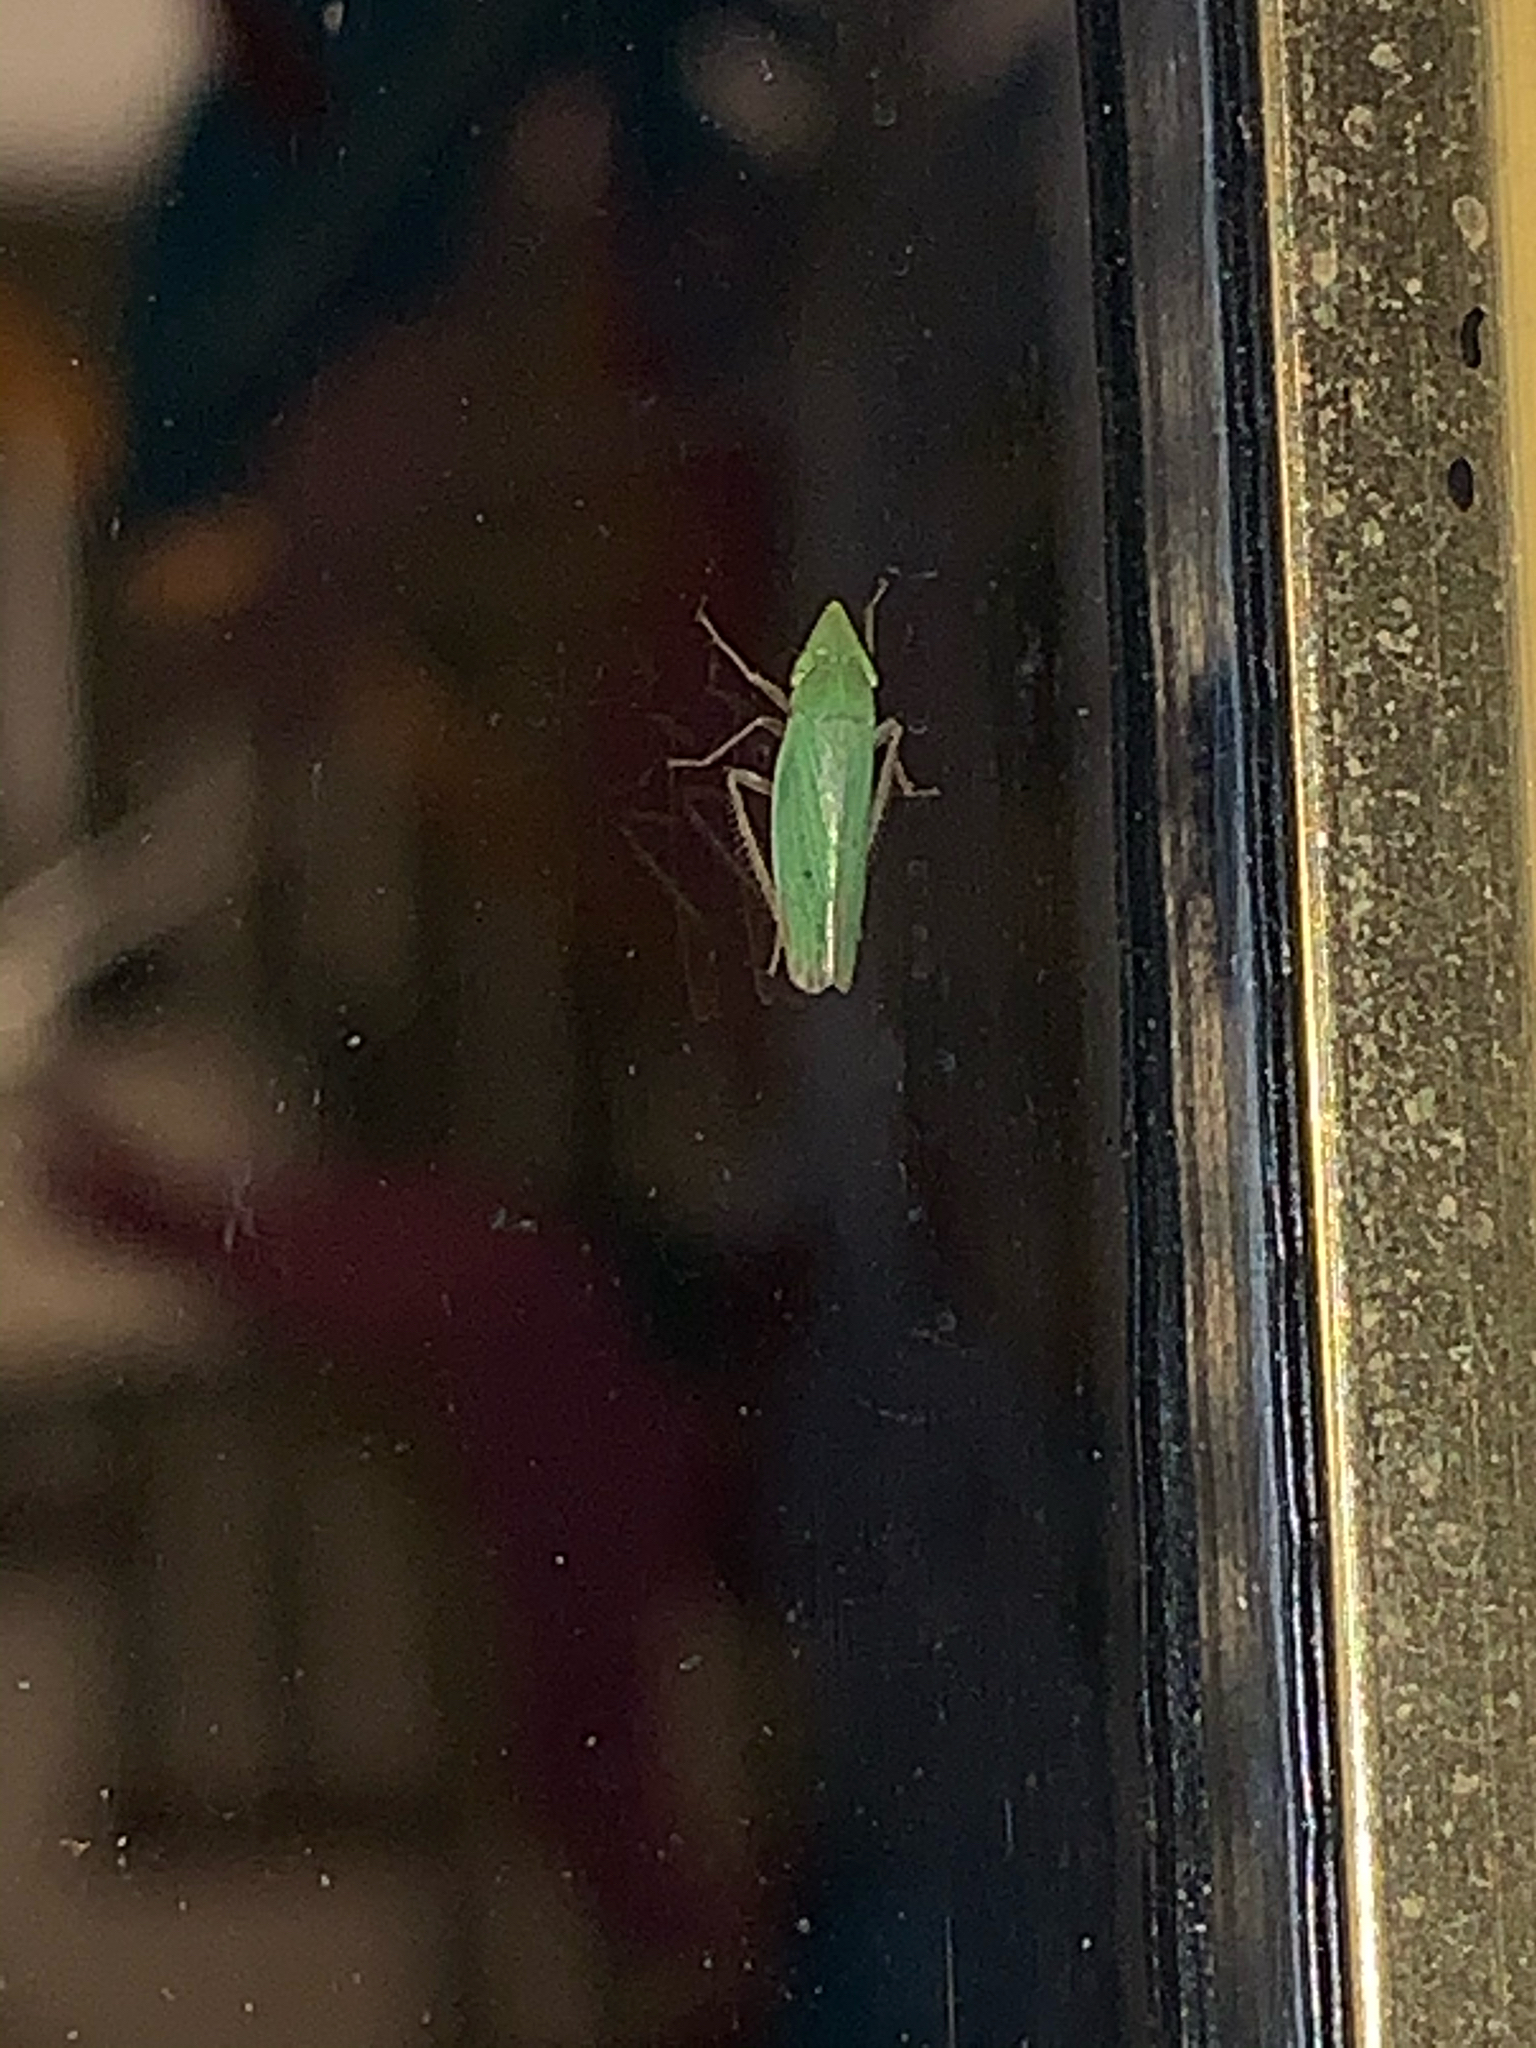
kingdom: Animalia
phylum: Arthropoda
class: Insecta
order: Hemiptera
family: Cicadellidae
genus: Draeculacephala
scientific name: Draeculacephala
